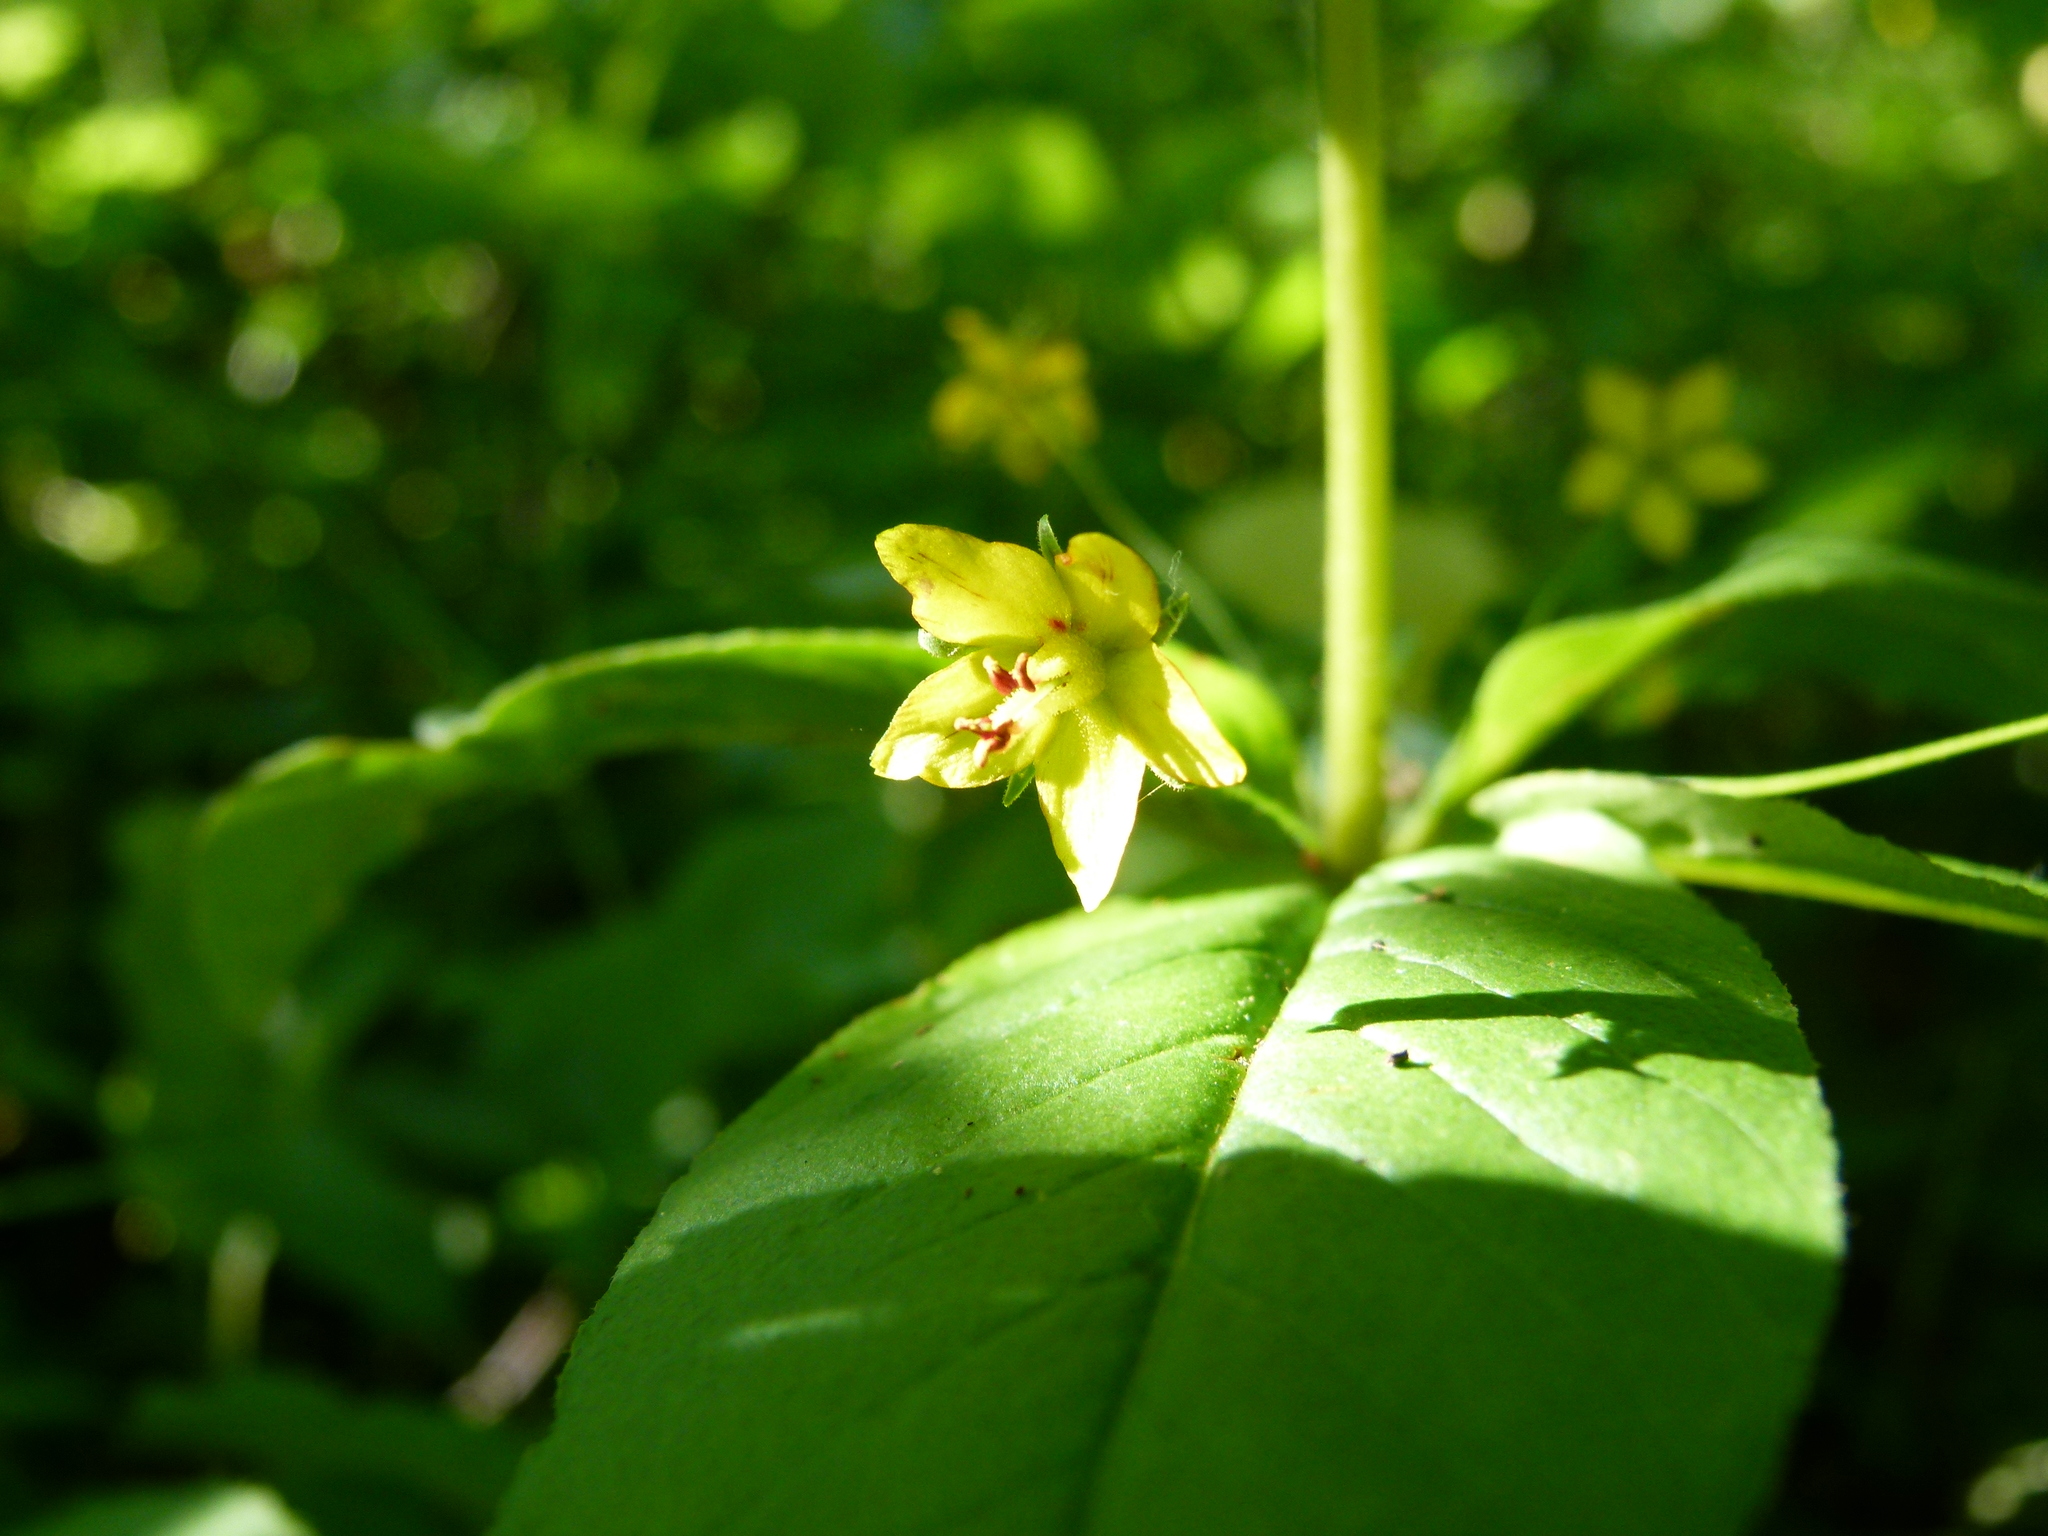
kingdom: Plantae
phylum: Tracheophyta
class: Magnoliopsida
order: Ericales
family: Primulaceae
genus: Lysimachia
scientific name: Lysimachia quadrifolia
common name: Whorled loosestrife
